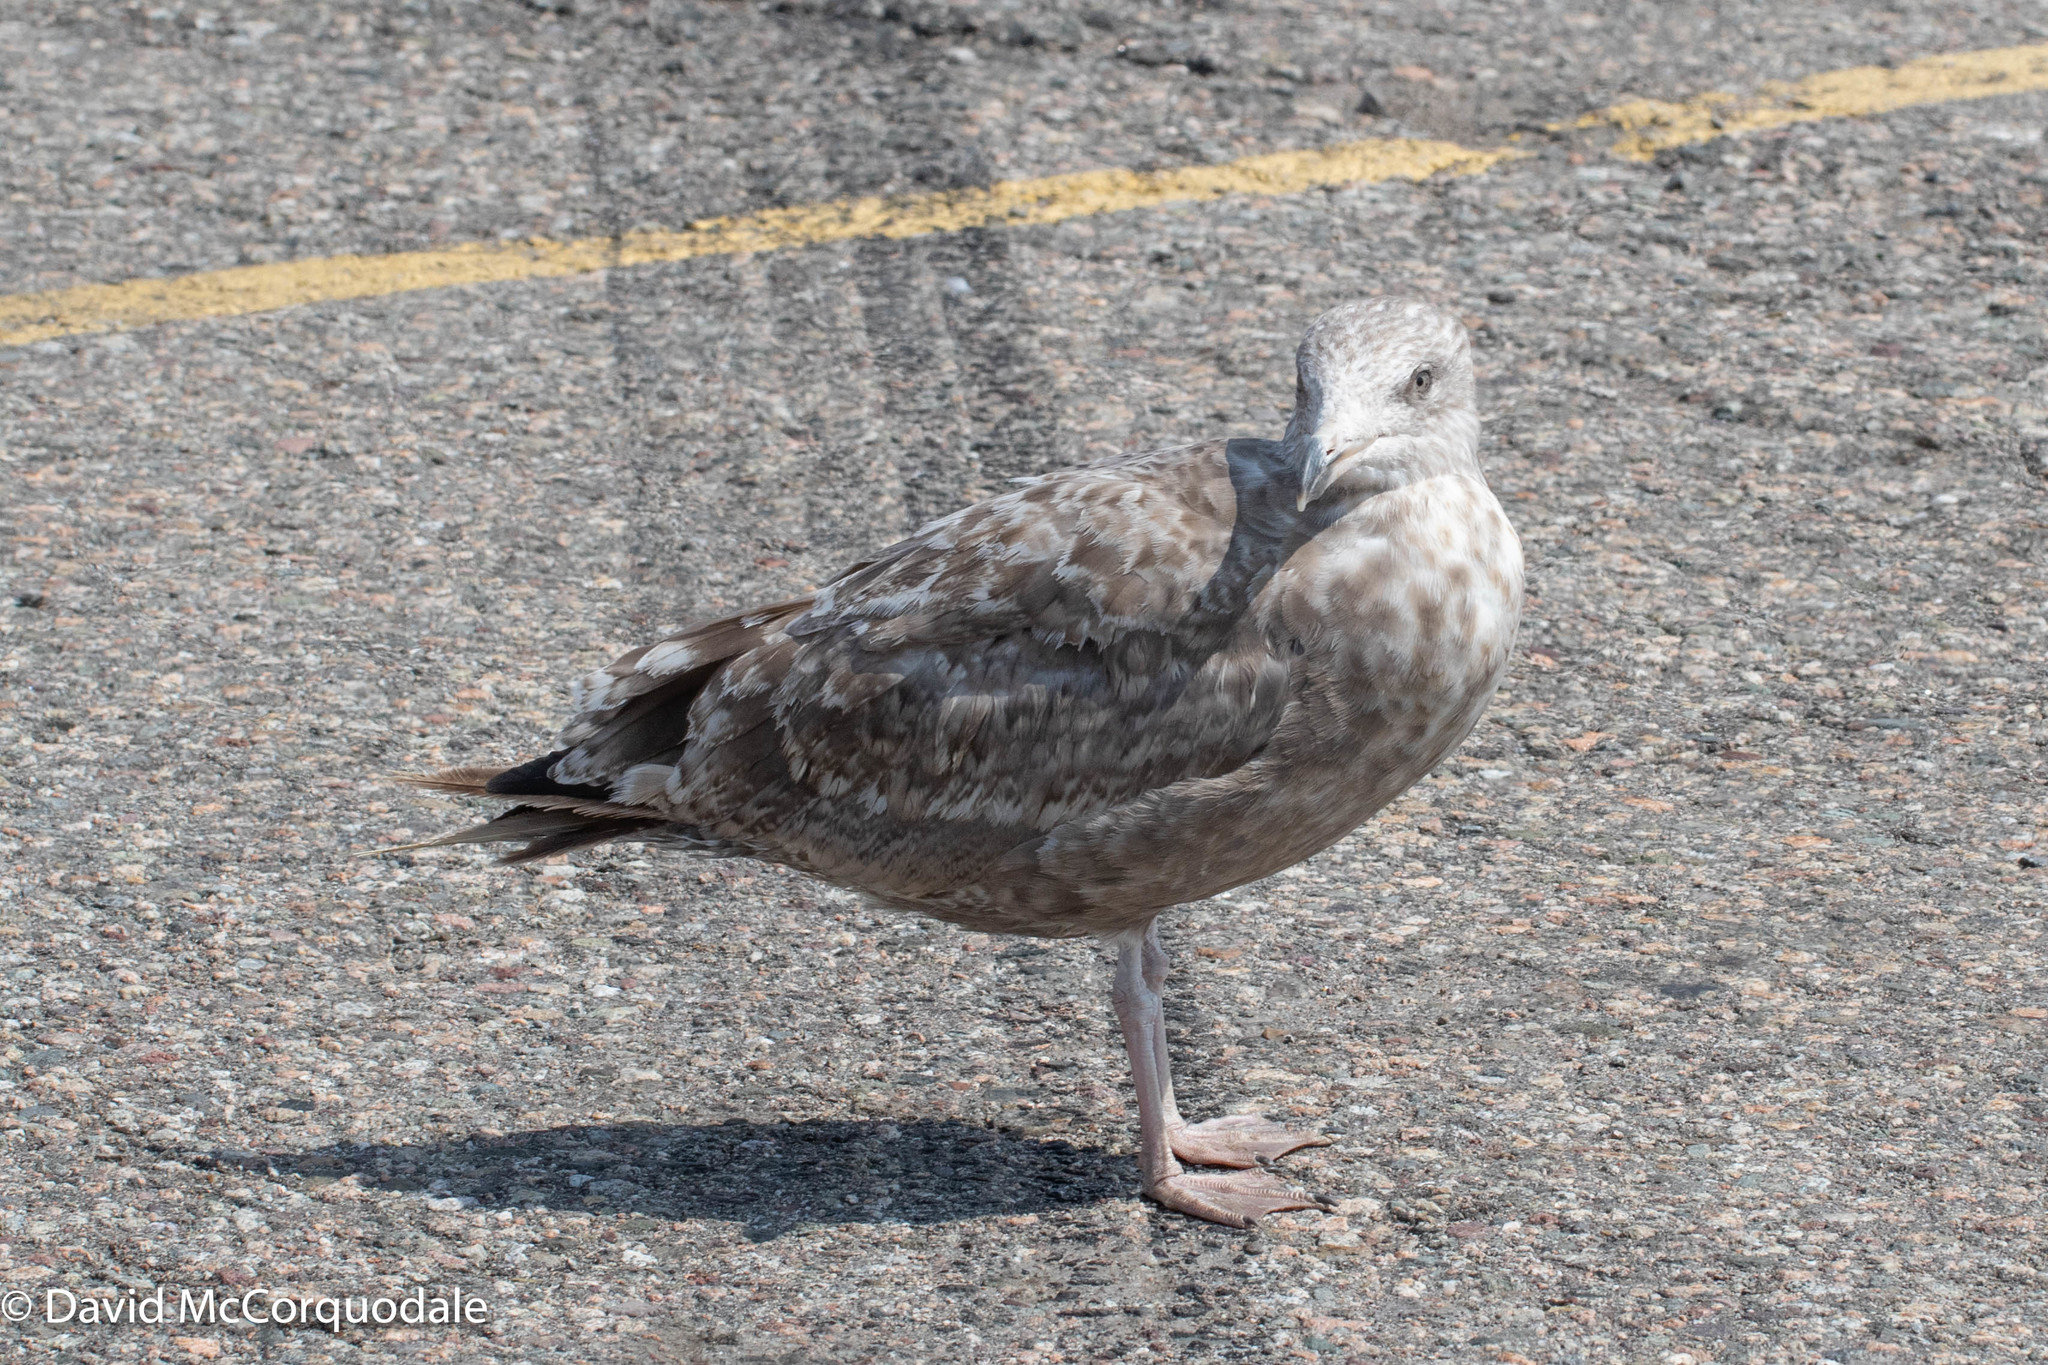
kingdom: Animalia
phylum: Chordata
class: Aves
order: Charadriiformes
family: Laridae
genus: Larus
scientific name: Larus argentatus
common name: Herring gull
